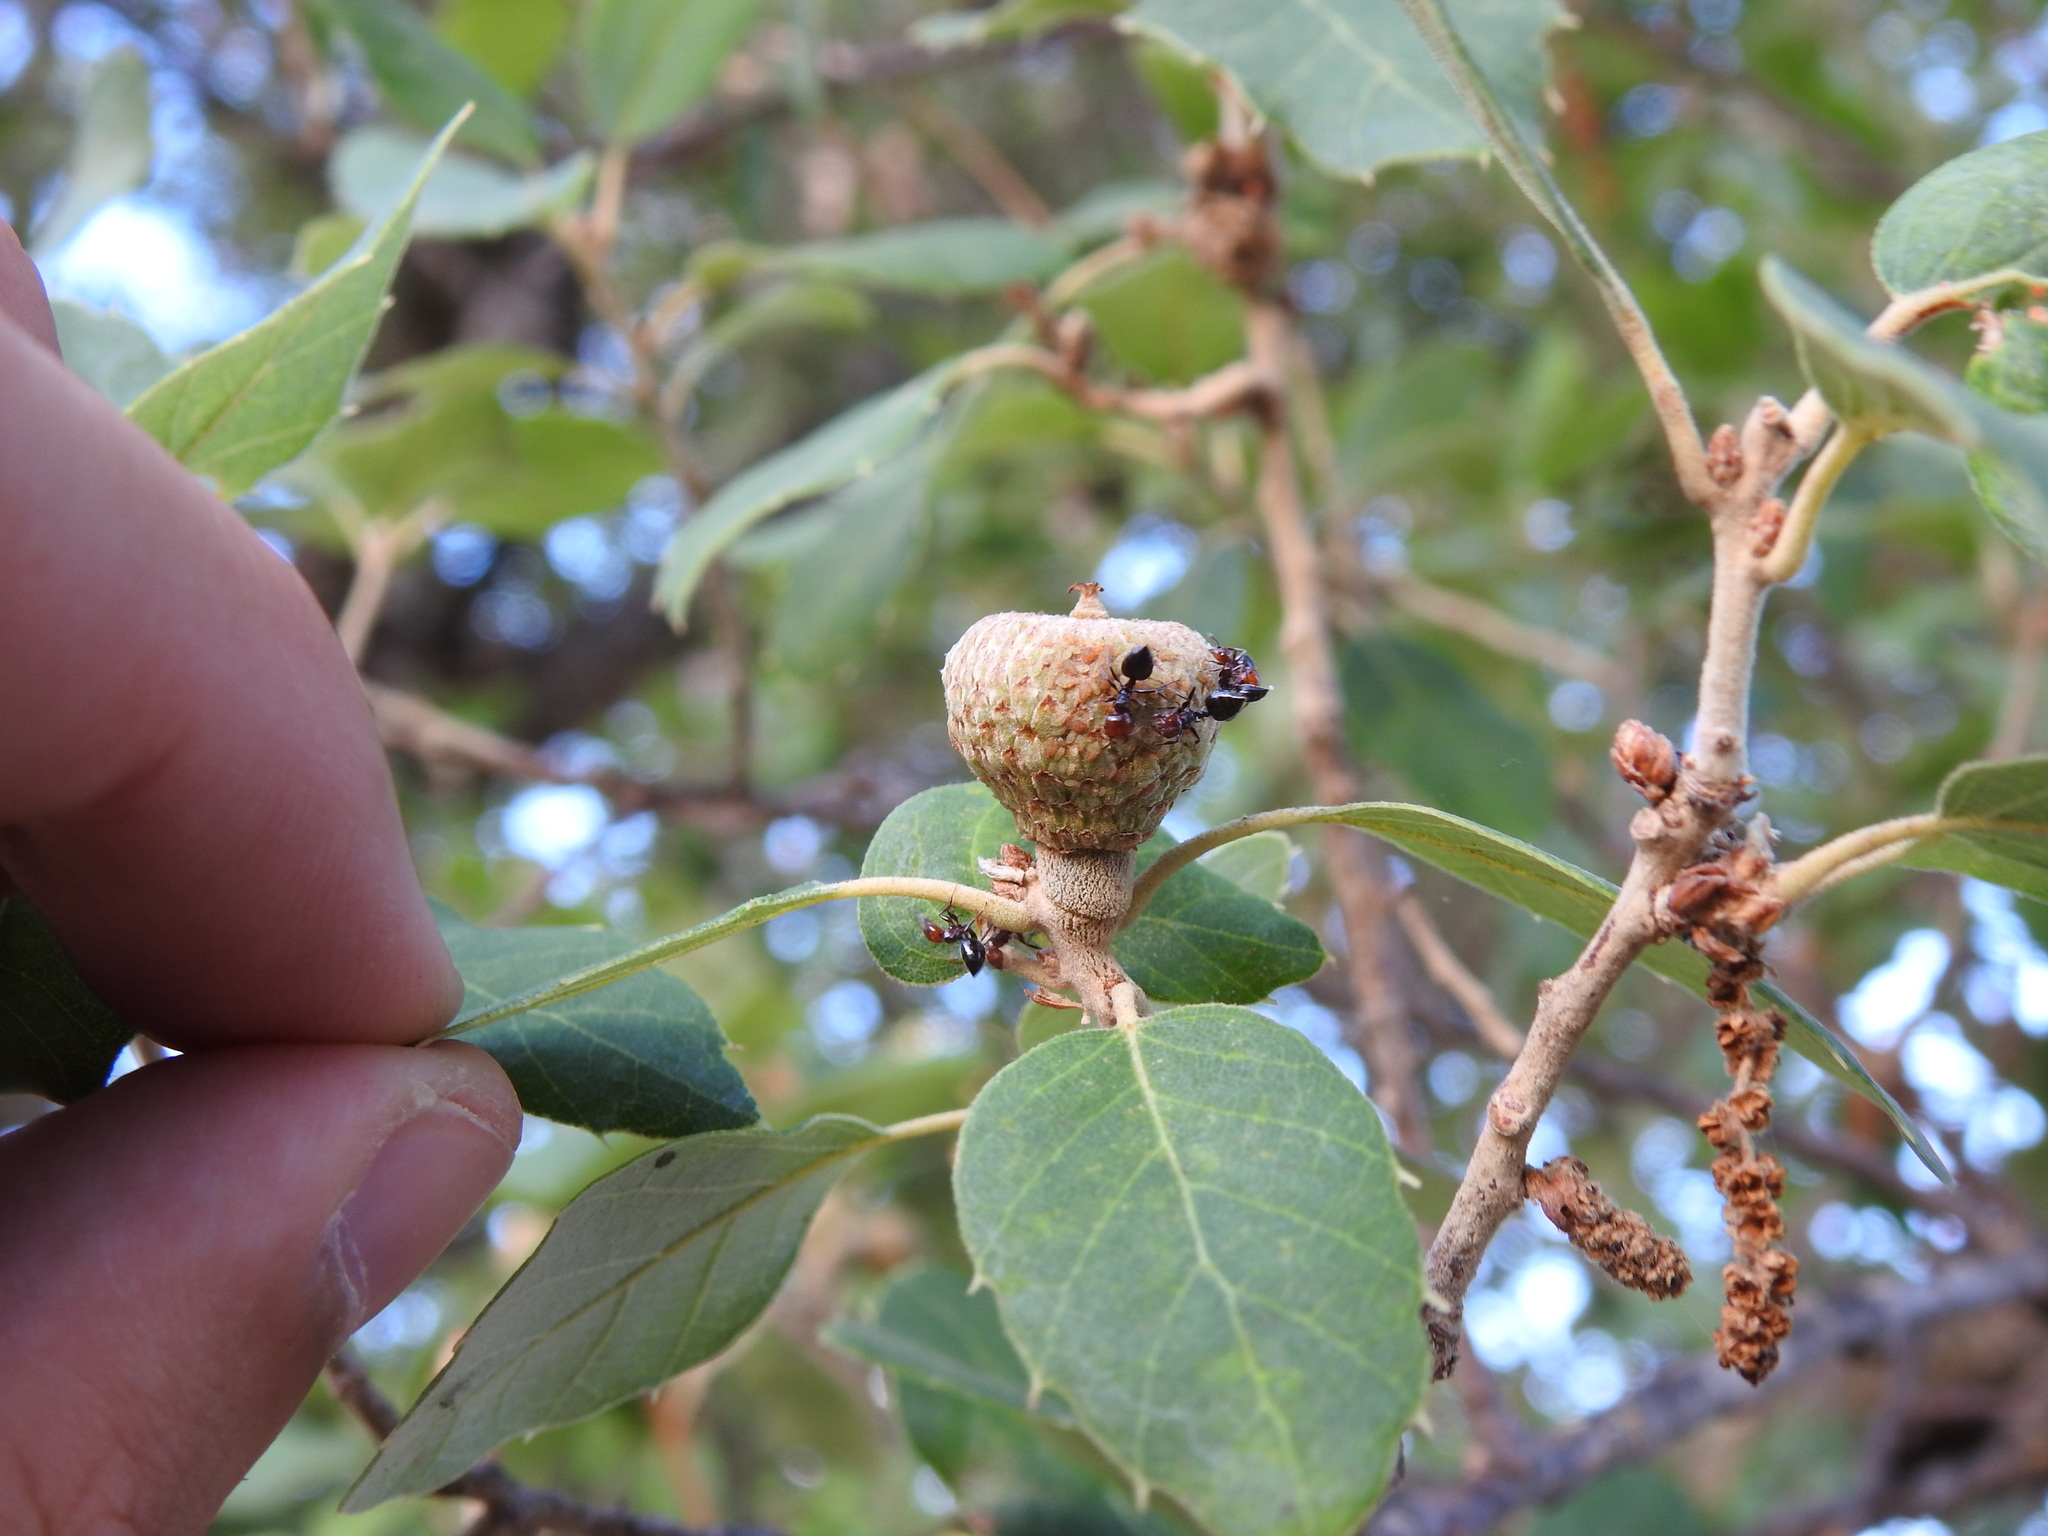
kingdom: Animalia
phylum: Arthropoda
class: Insecta
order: Hymenoptera
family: Formicidae
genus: Crematogaster
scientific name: Crematogaster scutellaris
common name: Fourmi du liège
